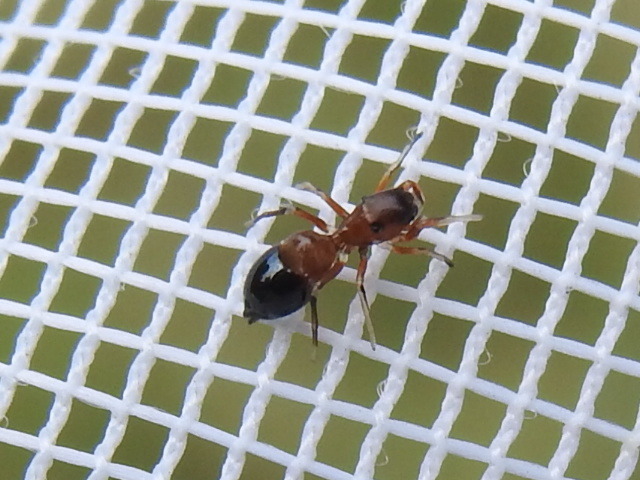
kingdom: Animalia
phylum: Arthropoda
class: Arachnida
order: Araneae
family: Salticidae
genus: Peckhamia
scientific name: Peckhamia
